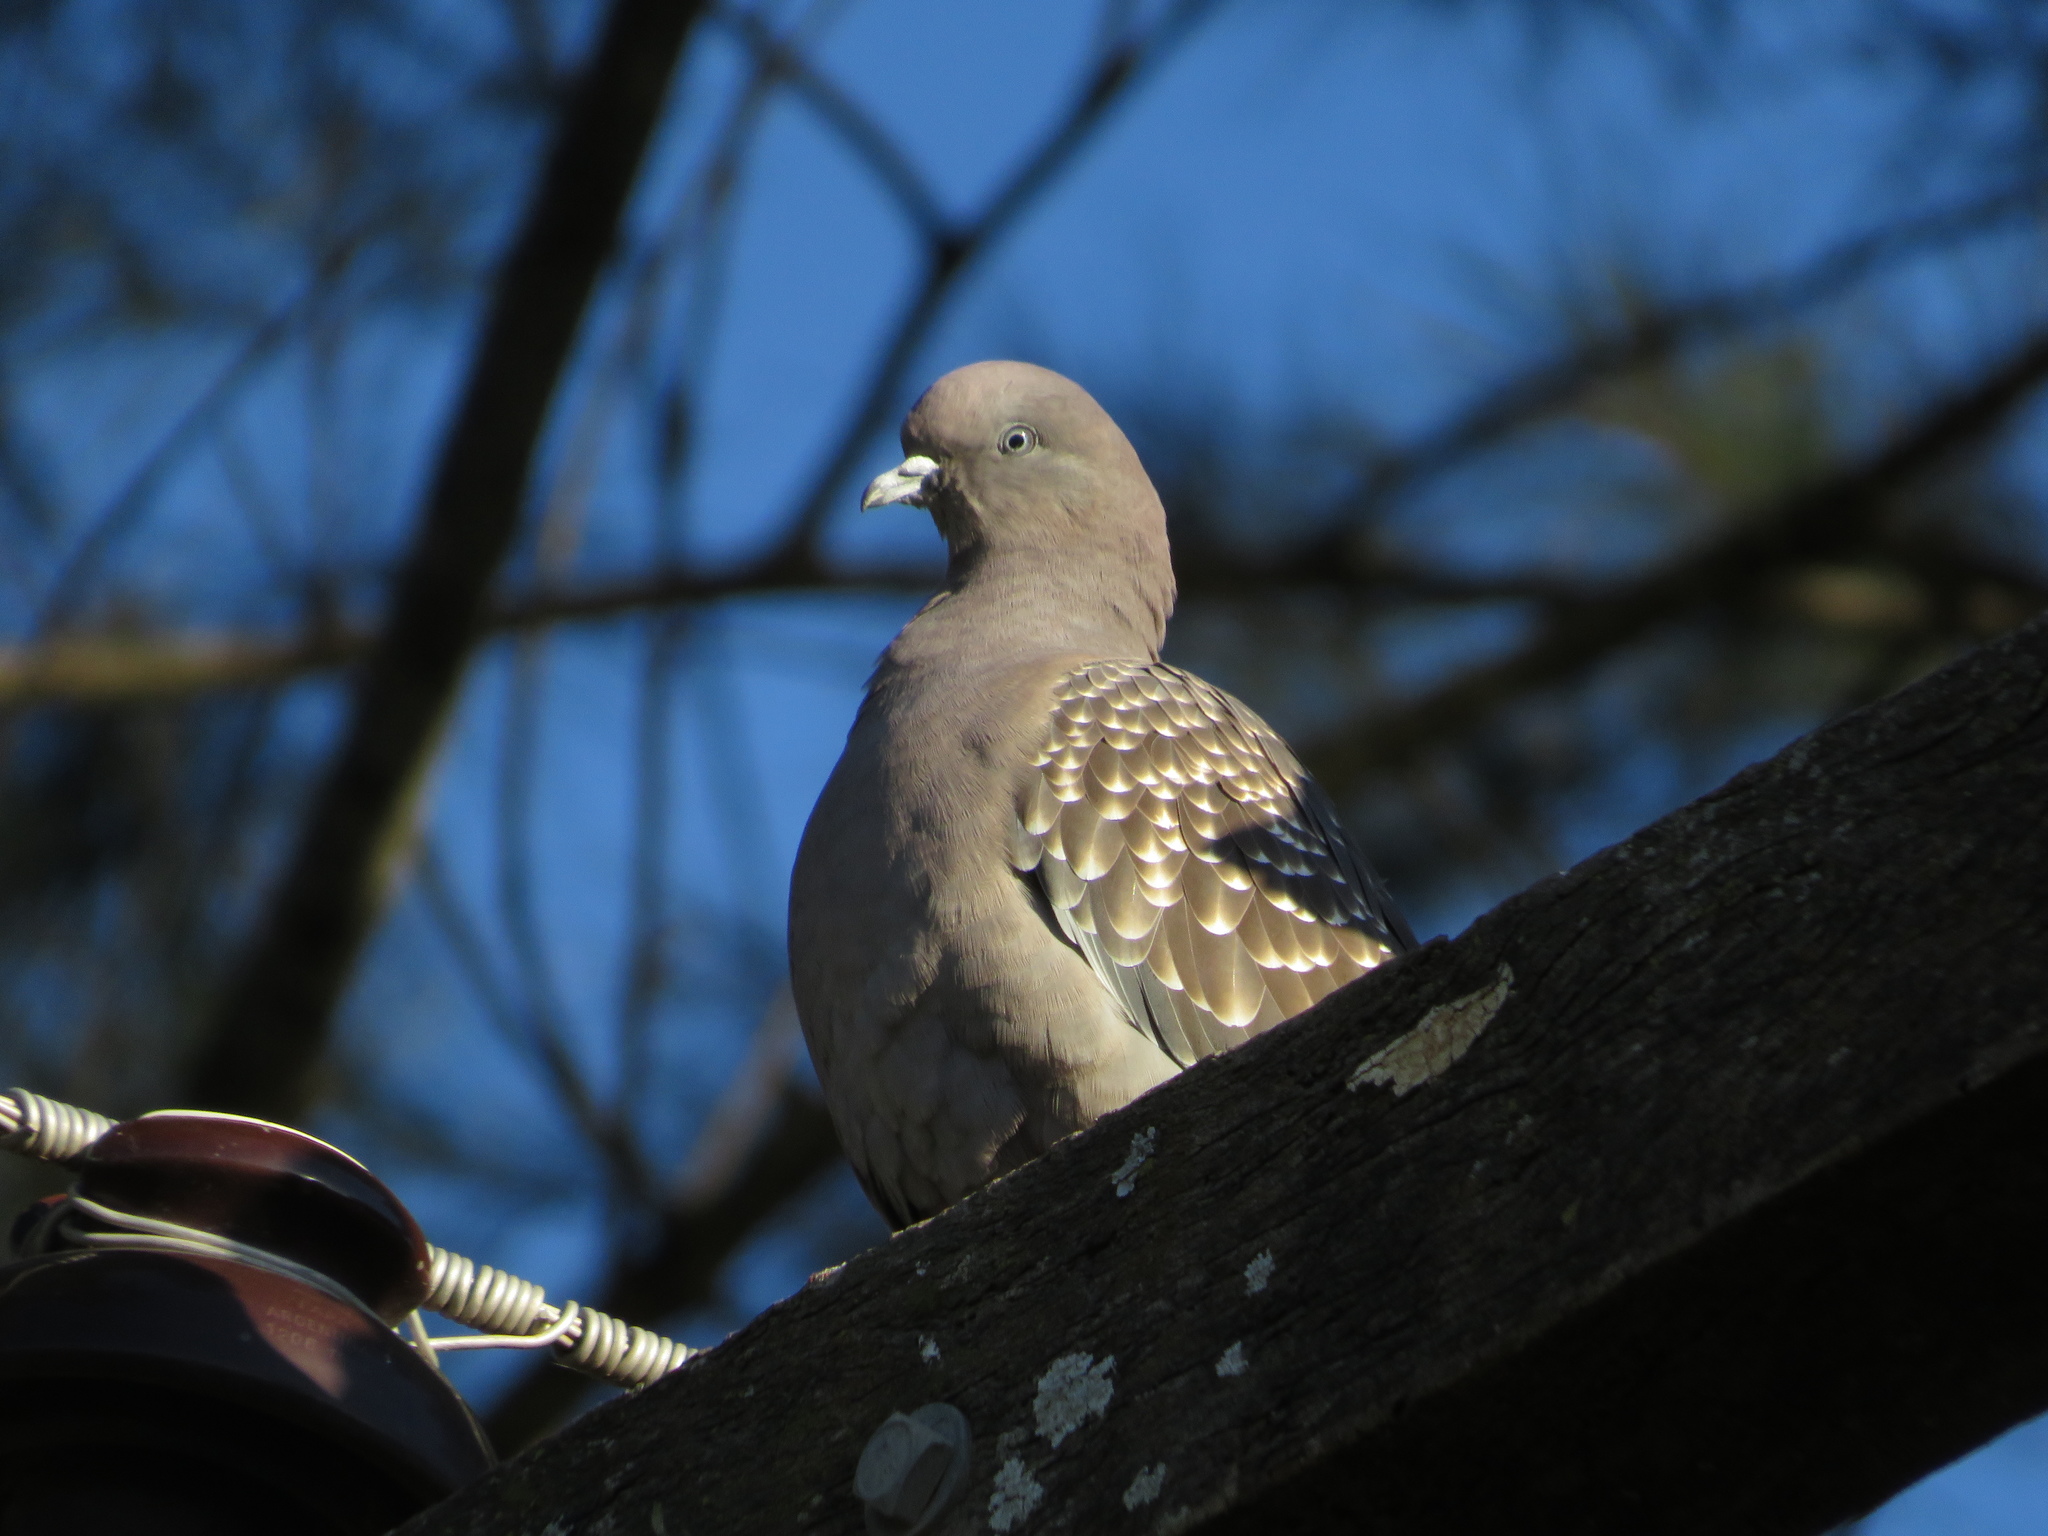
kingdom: Animalia
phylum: Chordata
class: Aves
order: Columbiformes
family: Columbidae
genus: Patagioenas
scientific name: Patagioenas maculosa
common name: Spot-winged pigeon
